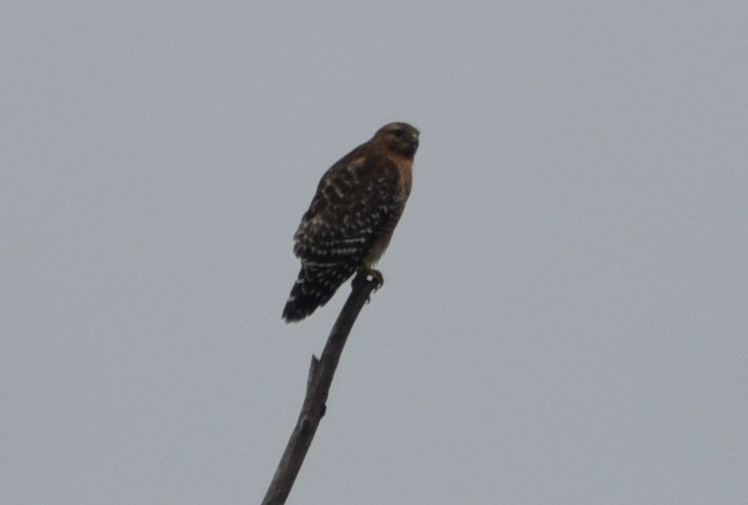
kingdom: Animalia
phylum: Chordata
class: Aves
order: Accipitriformes
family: Accipitridae
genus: Buteo
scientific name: Buteo lineatus
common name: Red-shouldered hawk
